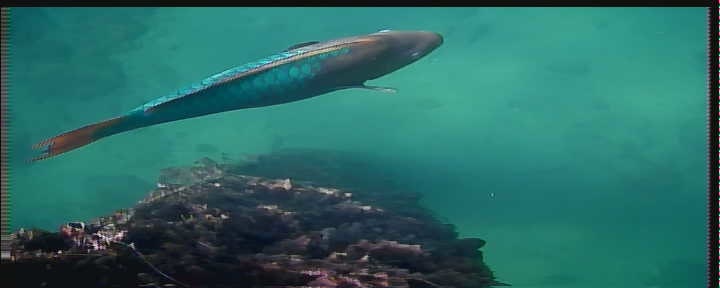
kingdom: Animalia
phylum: Chordata
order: Perciformes
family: Scaridae
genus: Scarus
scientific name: Scarus guacamaia
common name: Rainbow parrotfish
